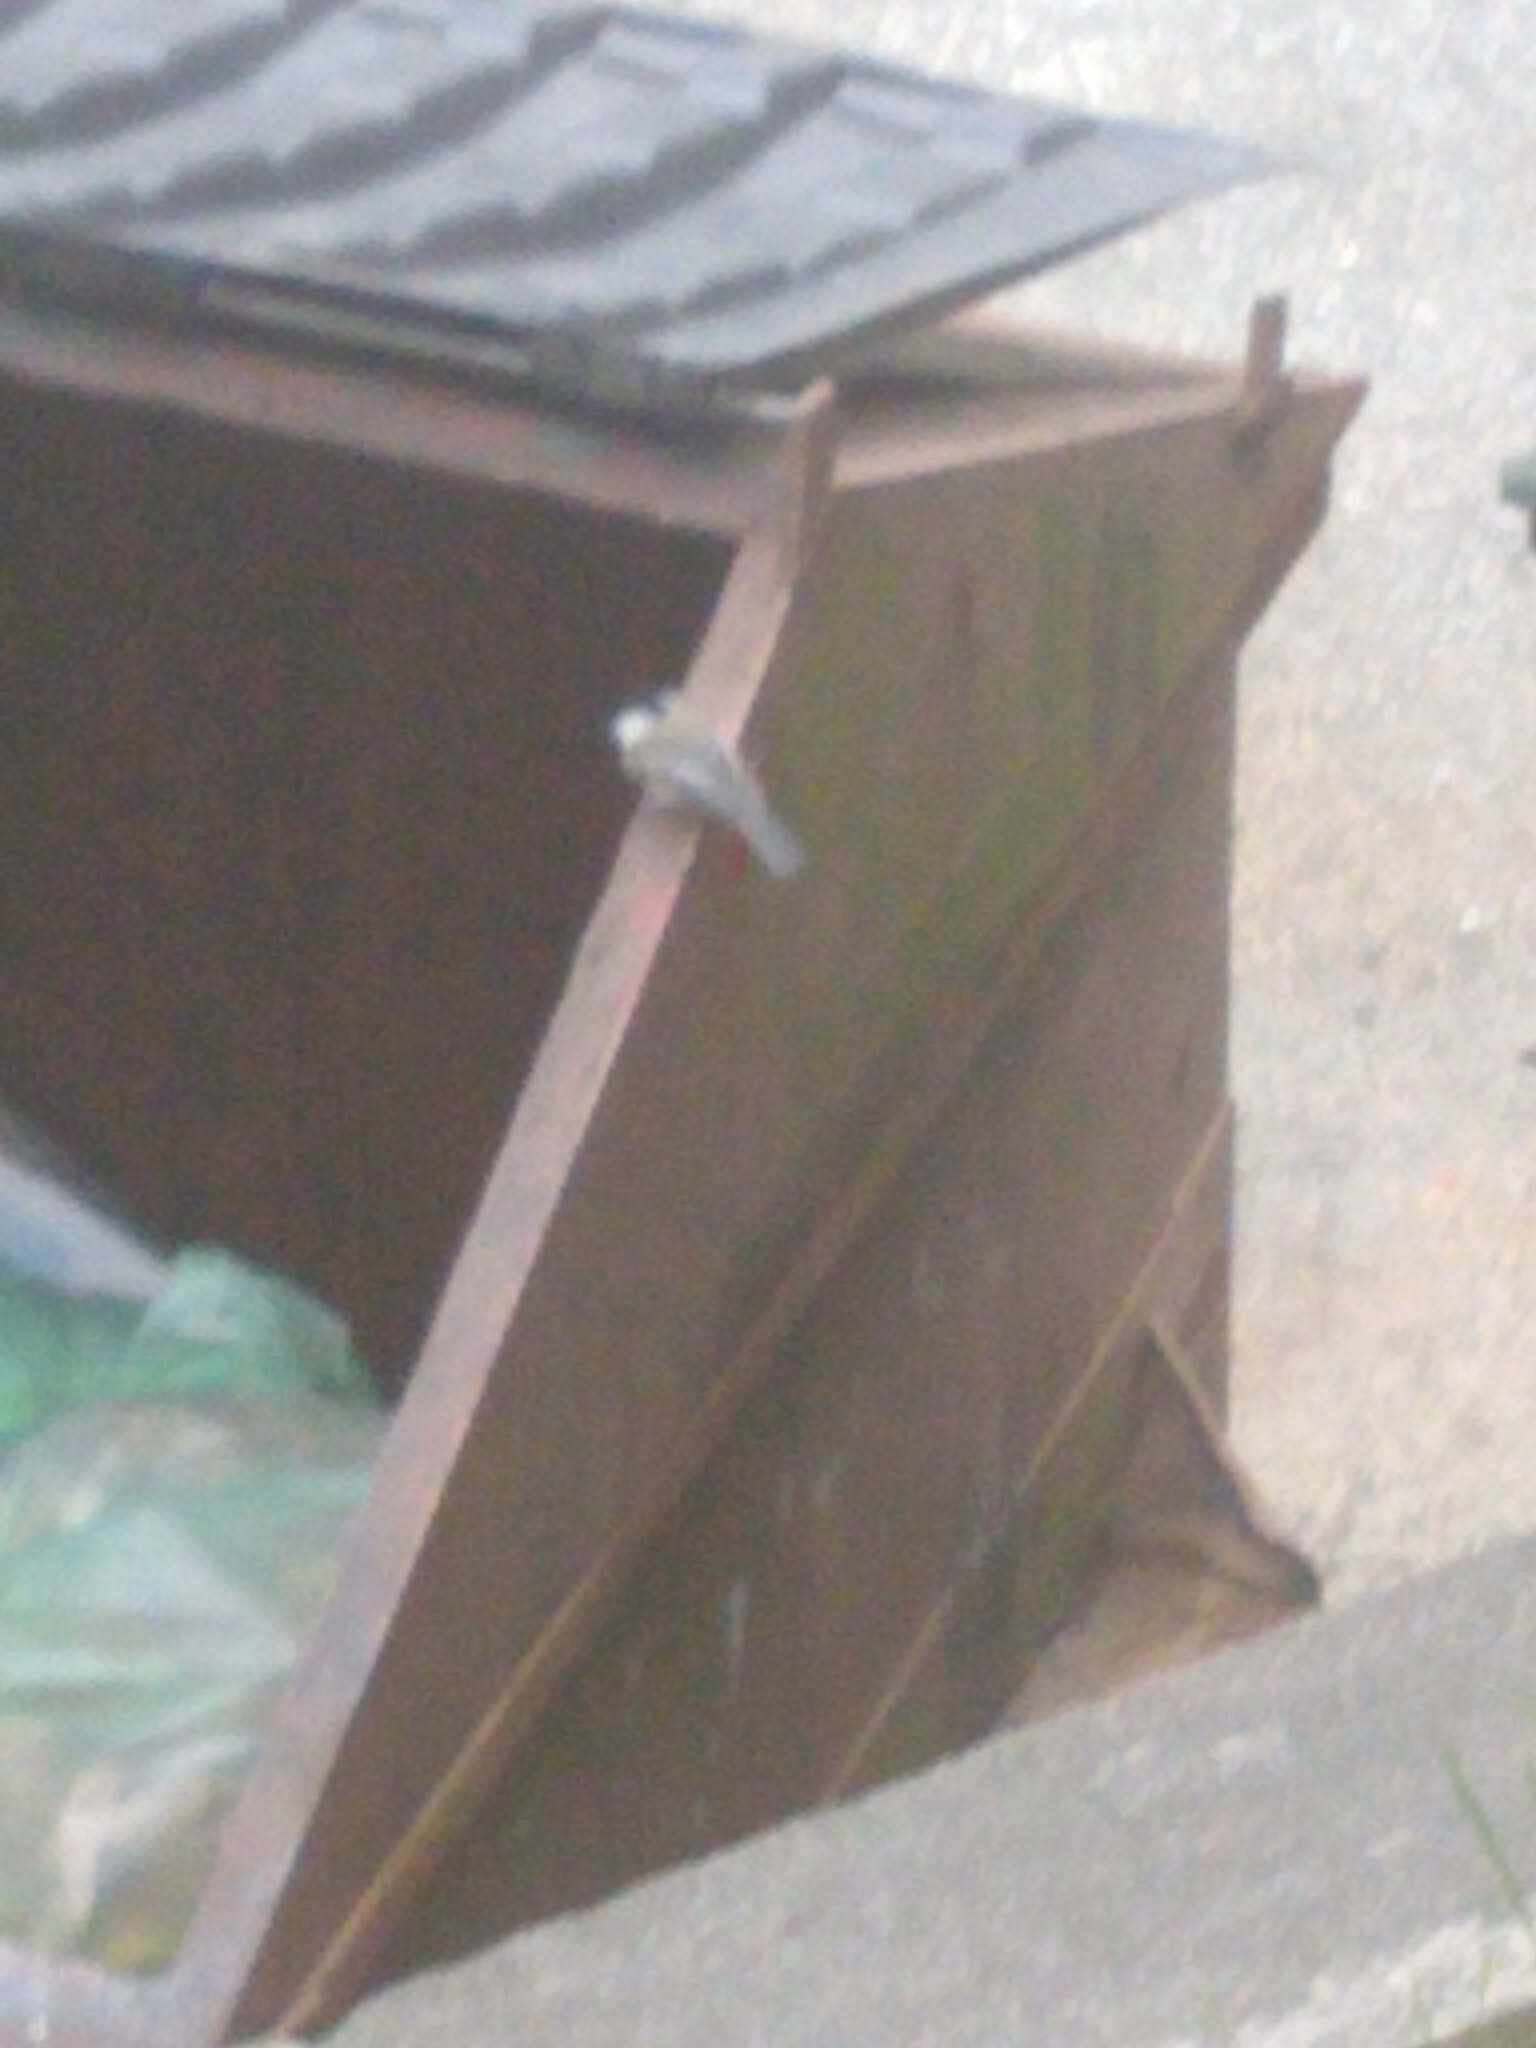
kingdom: Animalia
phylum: Chordata
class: Aves
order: Passeriformes
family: Paridae
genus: Poecile
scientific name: Poecile atricapillus
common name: Black-capped chickadee
